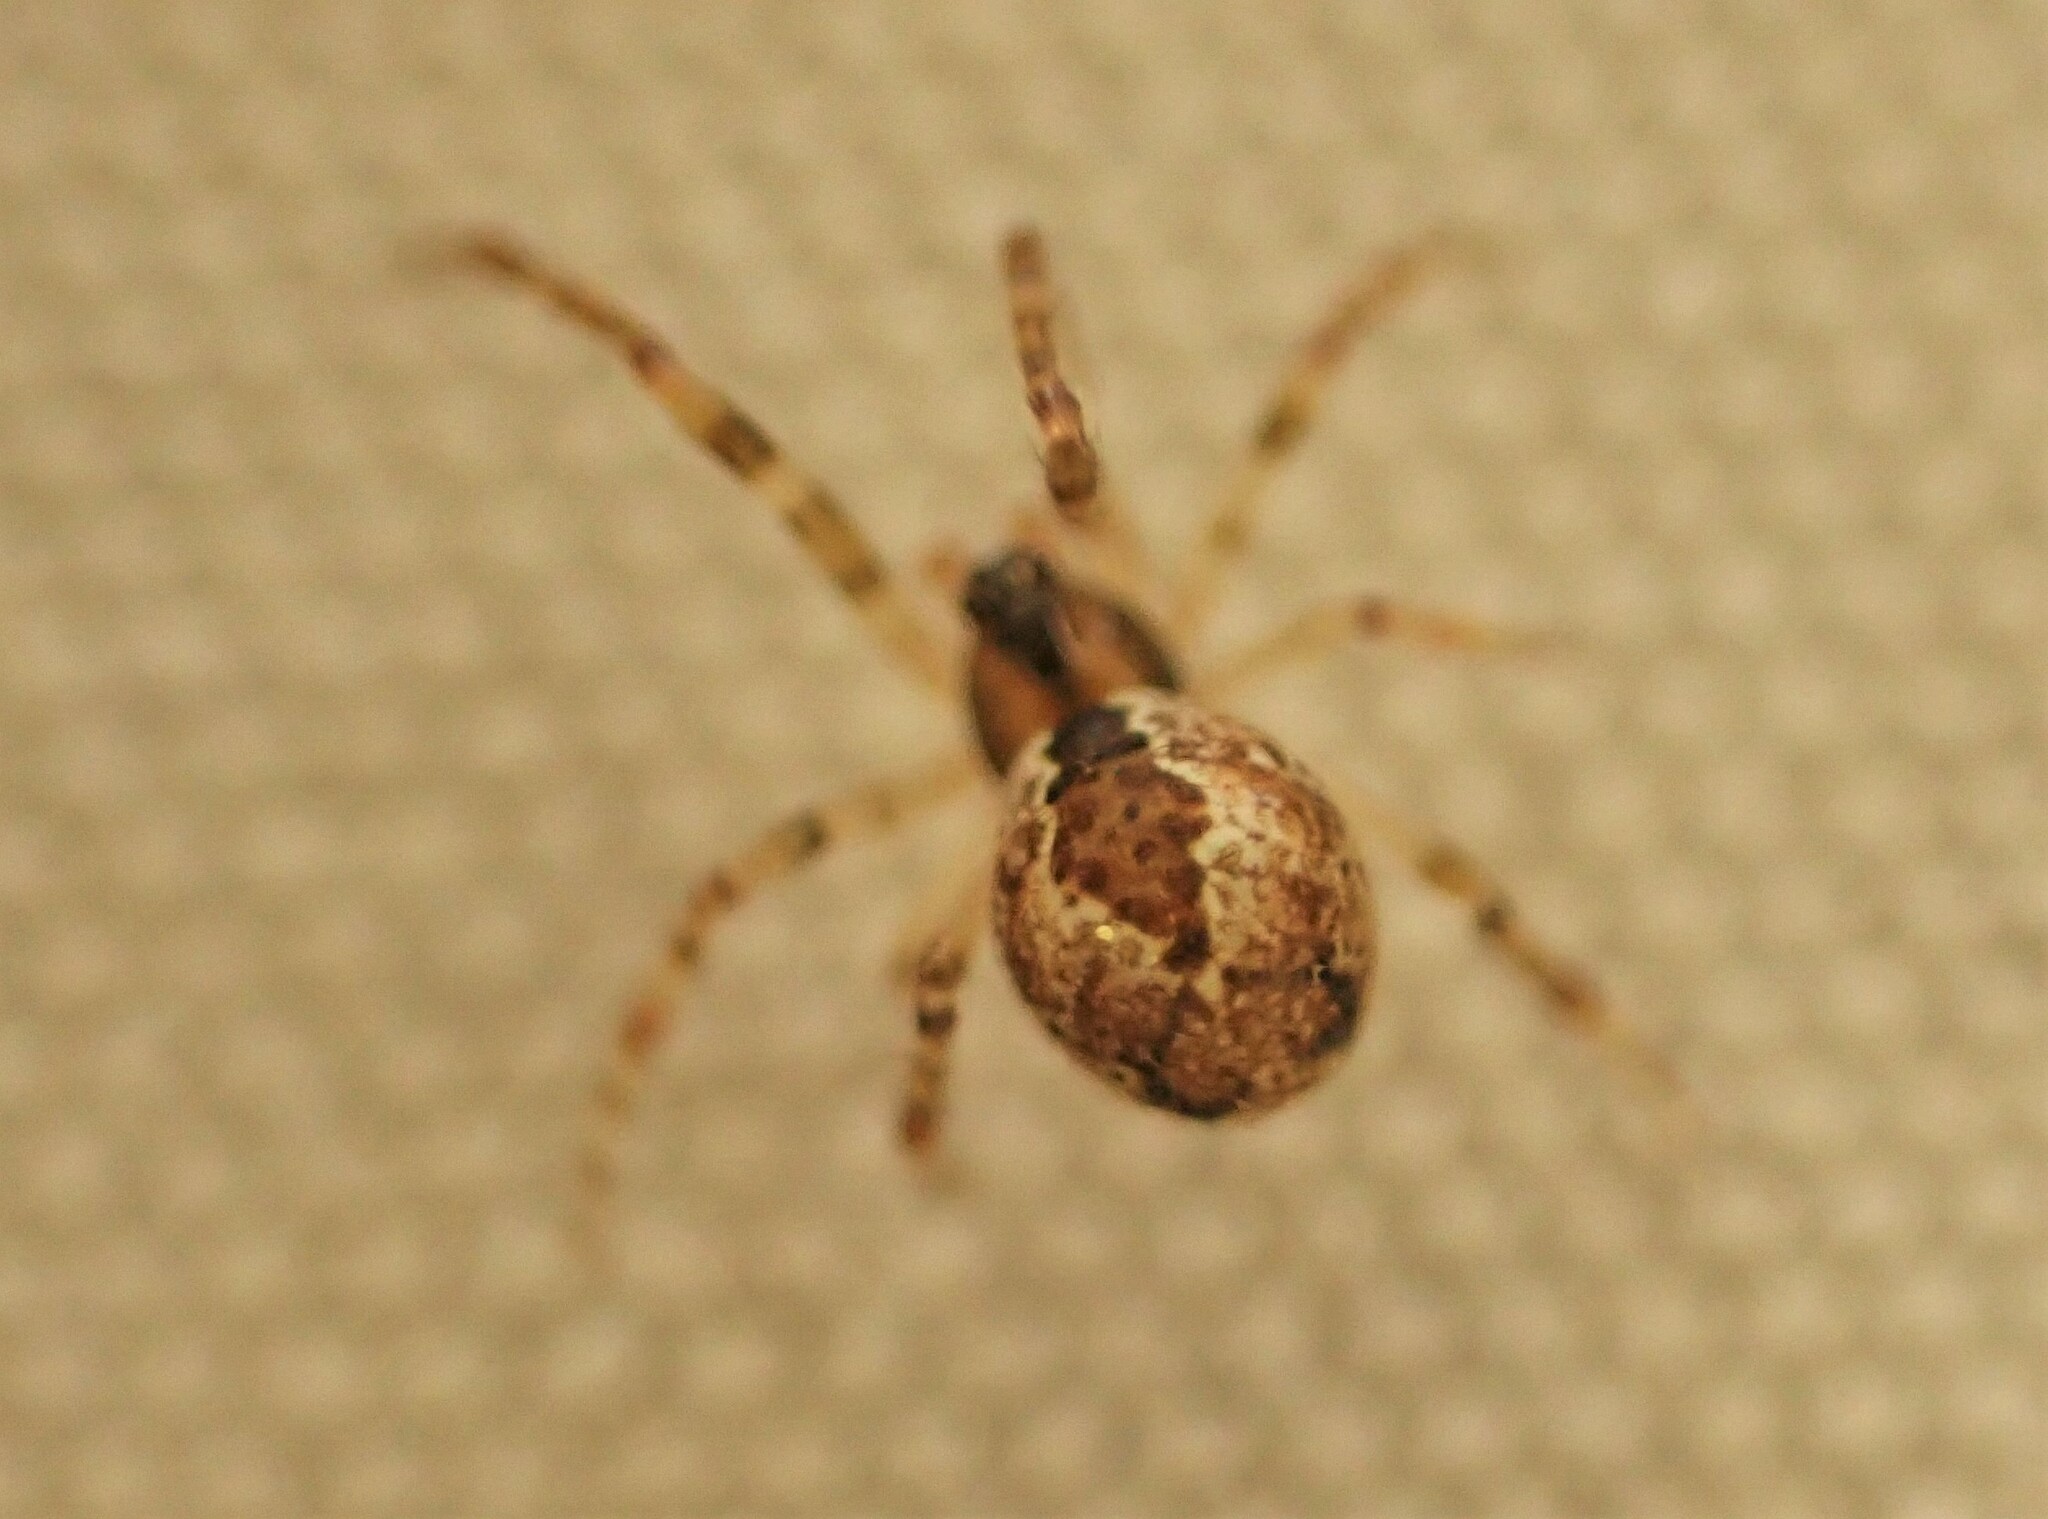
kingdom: Animalia
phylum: Arthropoda
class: Arachnida
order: Araneae
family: Theridiidae
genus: Cryptachaea
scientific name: Cryptachaea veruculata
